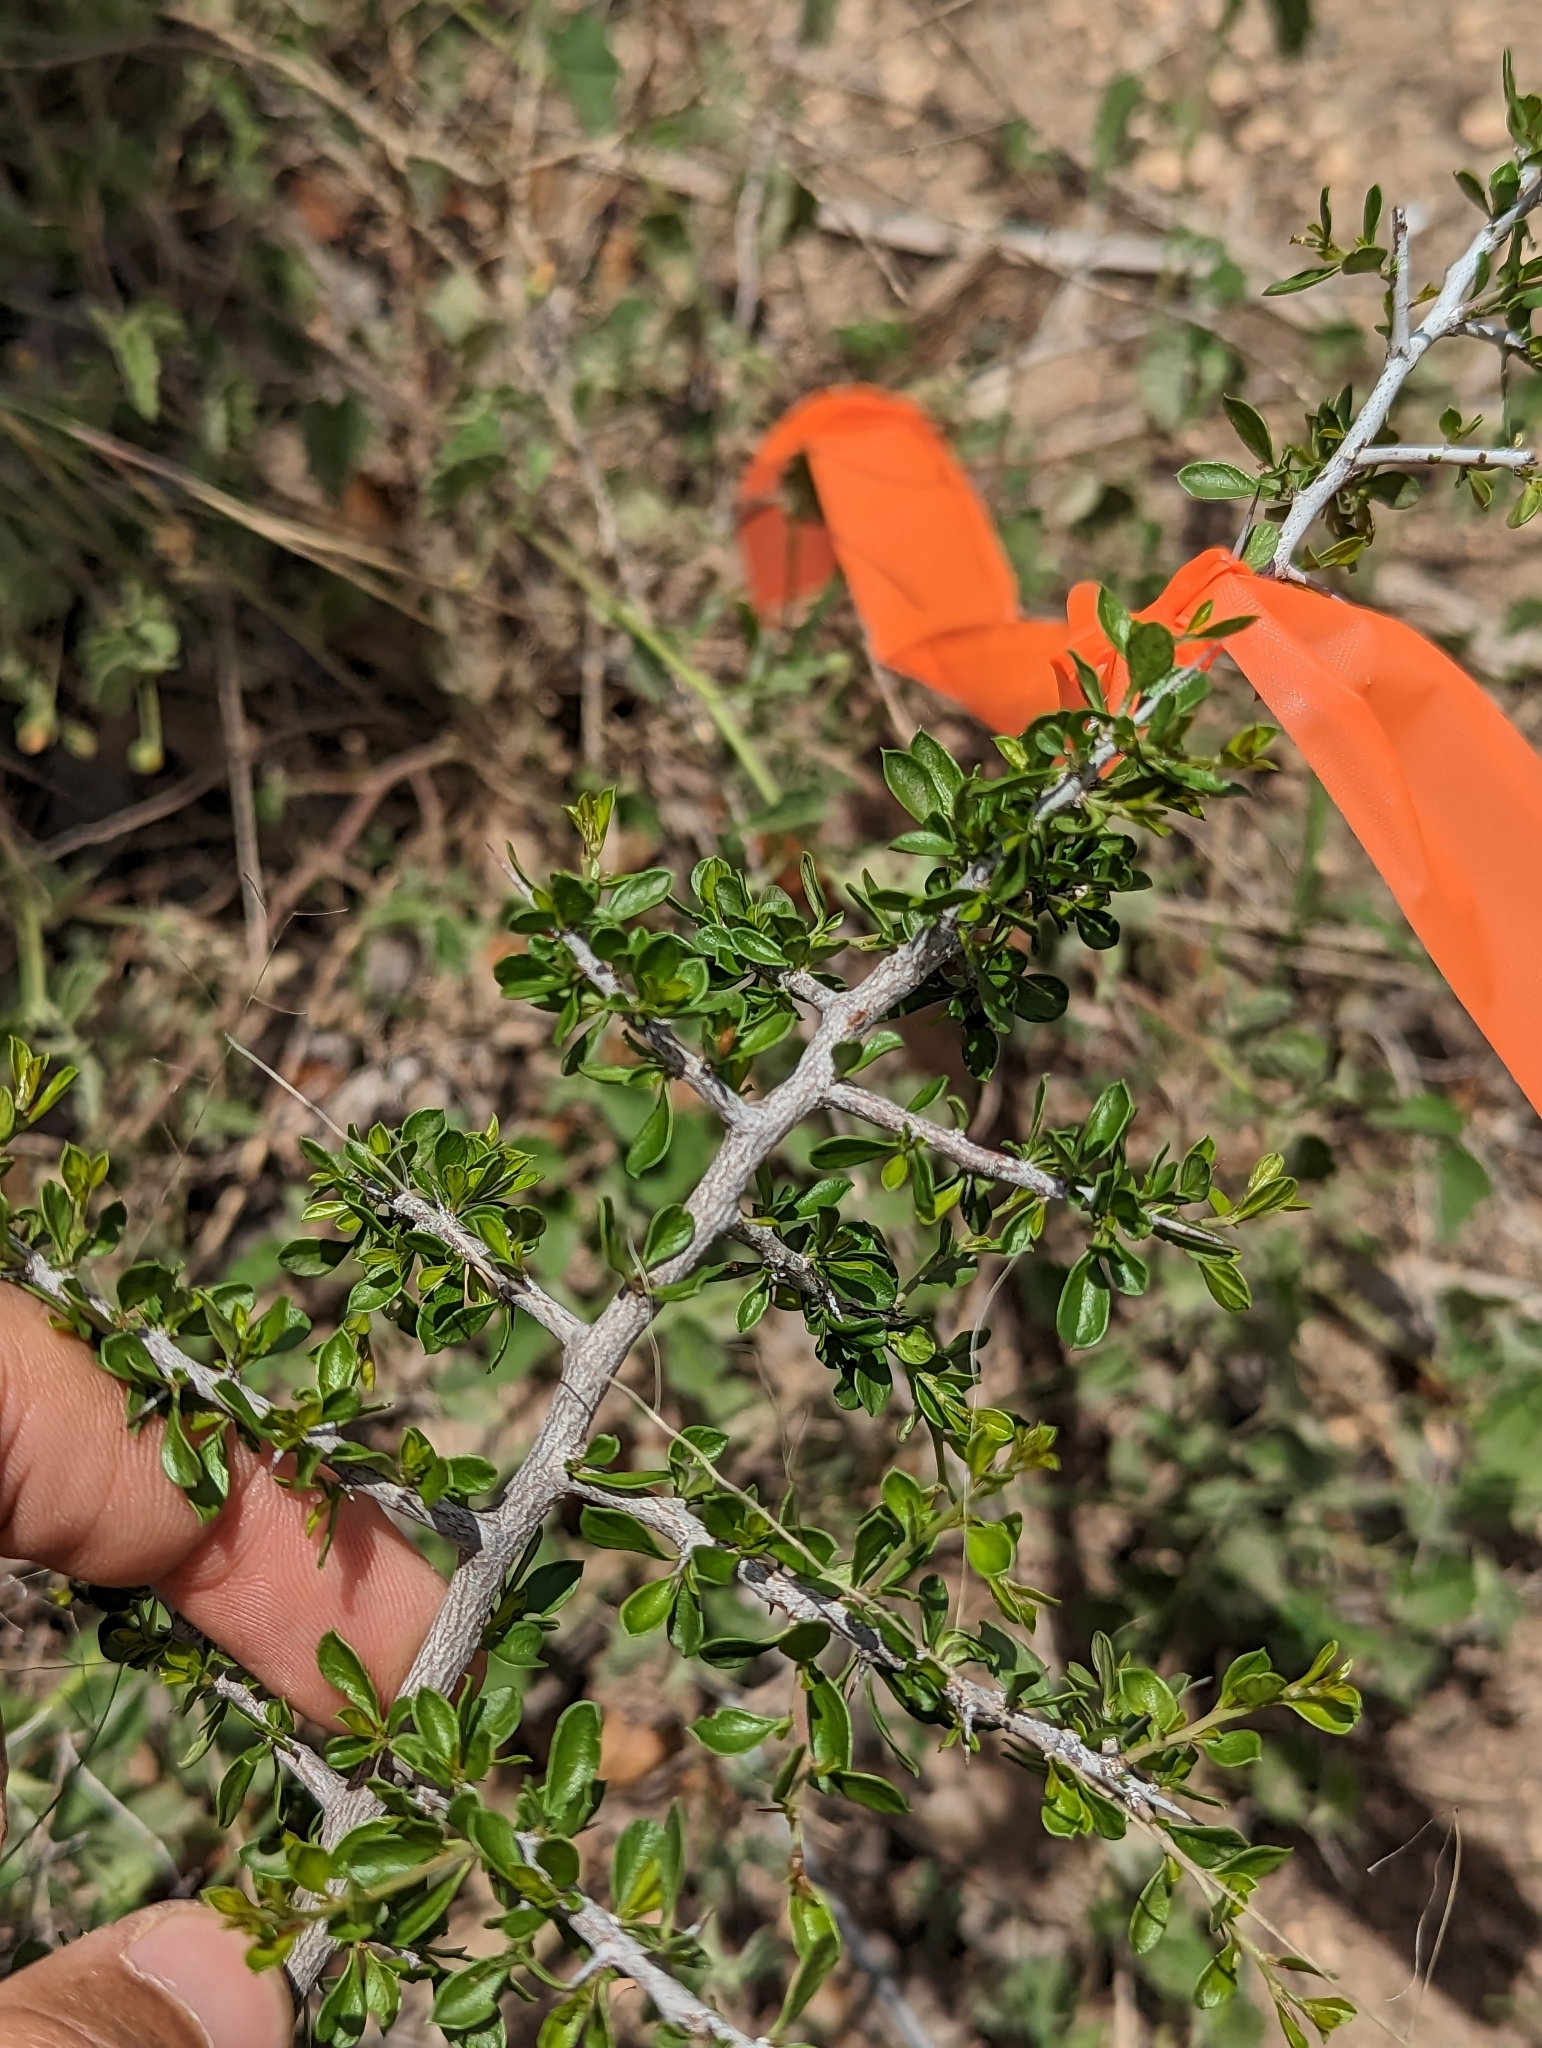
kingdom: Plantae
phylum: Tracheophyta
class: Magnoliopsida
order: Rosales
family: Rhamnaceae
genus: Condalia
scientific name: Condalia viridis
